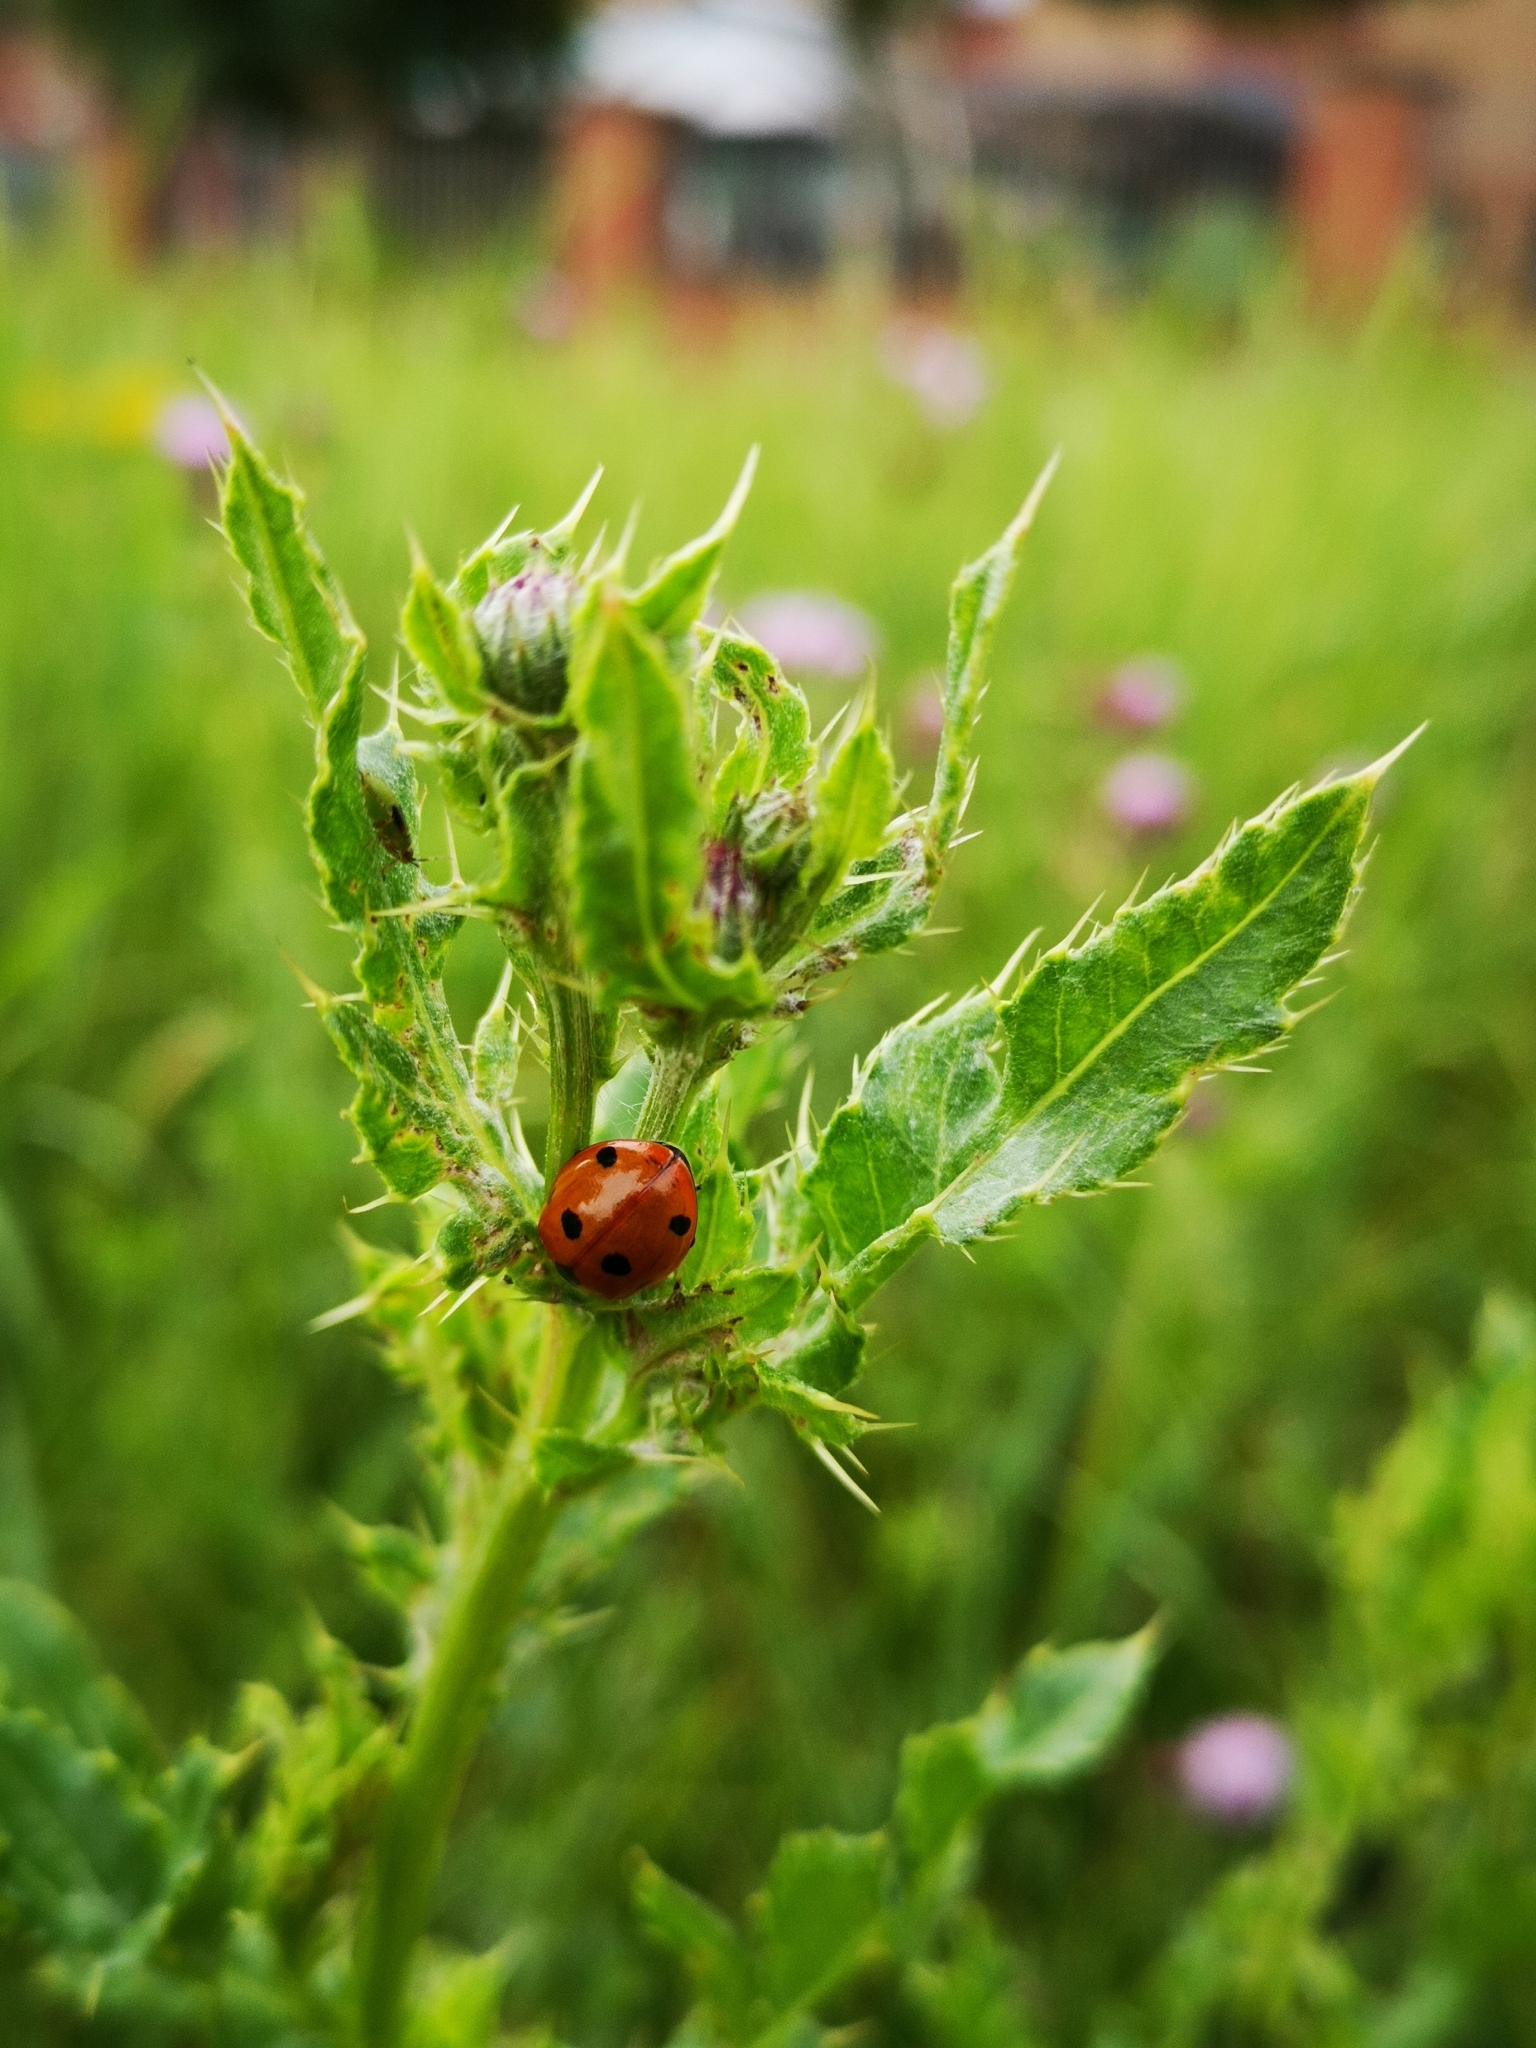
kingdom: Animalia
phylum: Arthropoda
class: Insecta
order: Coleoptera
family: Coccinellidae
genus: Coccinella
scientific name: Coccinella septempunctata
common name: Sevenspotted lady beetle
